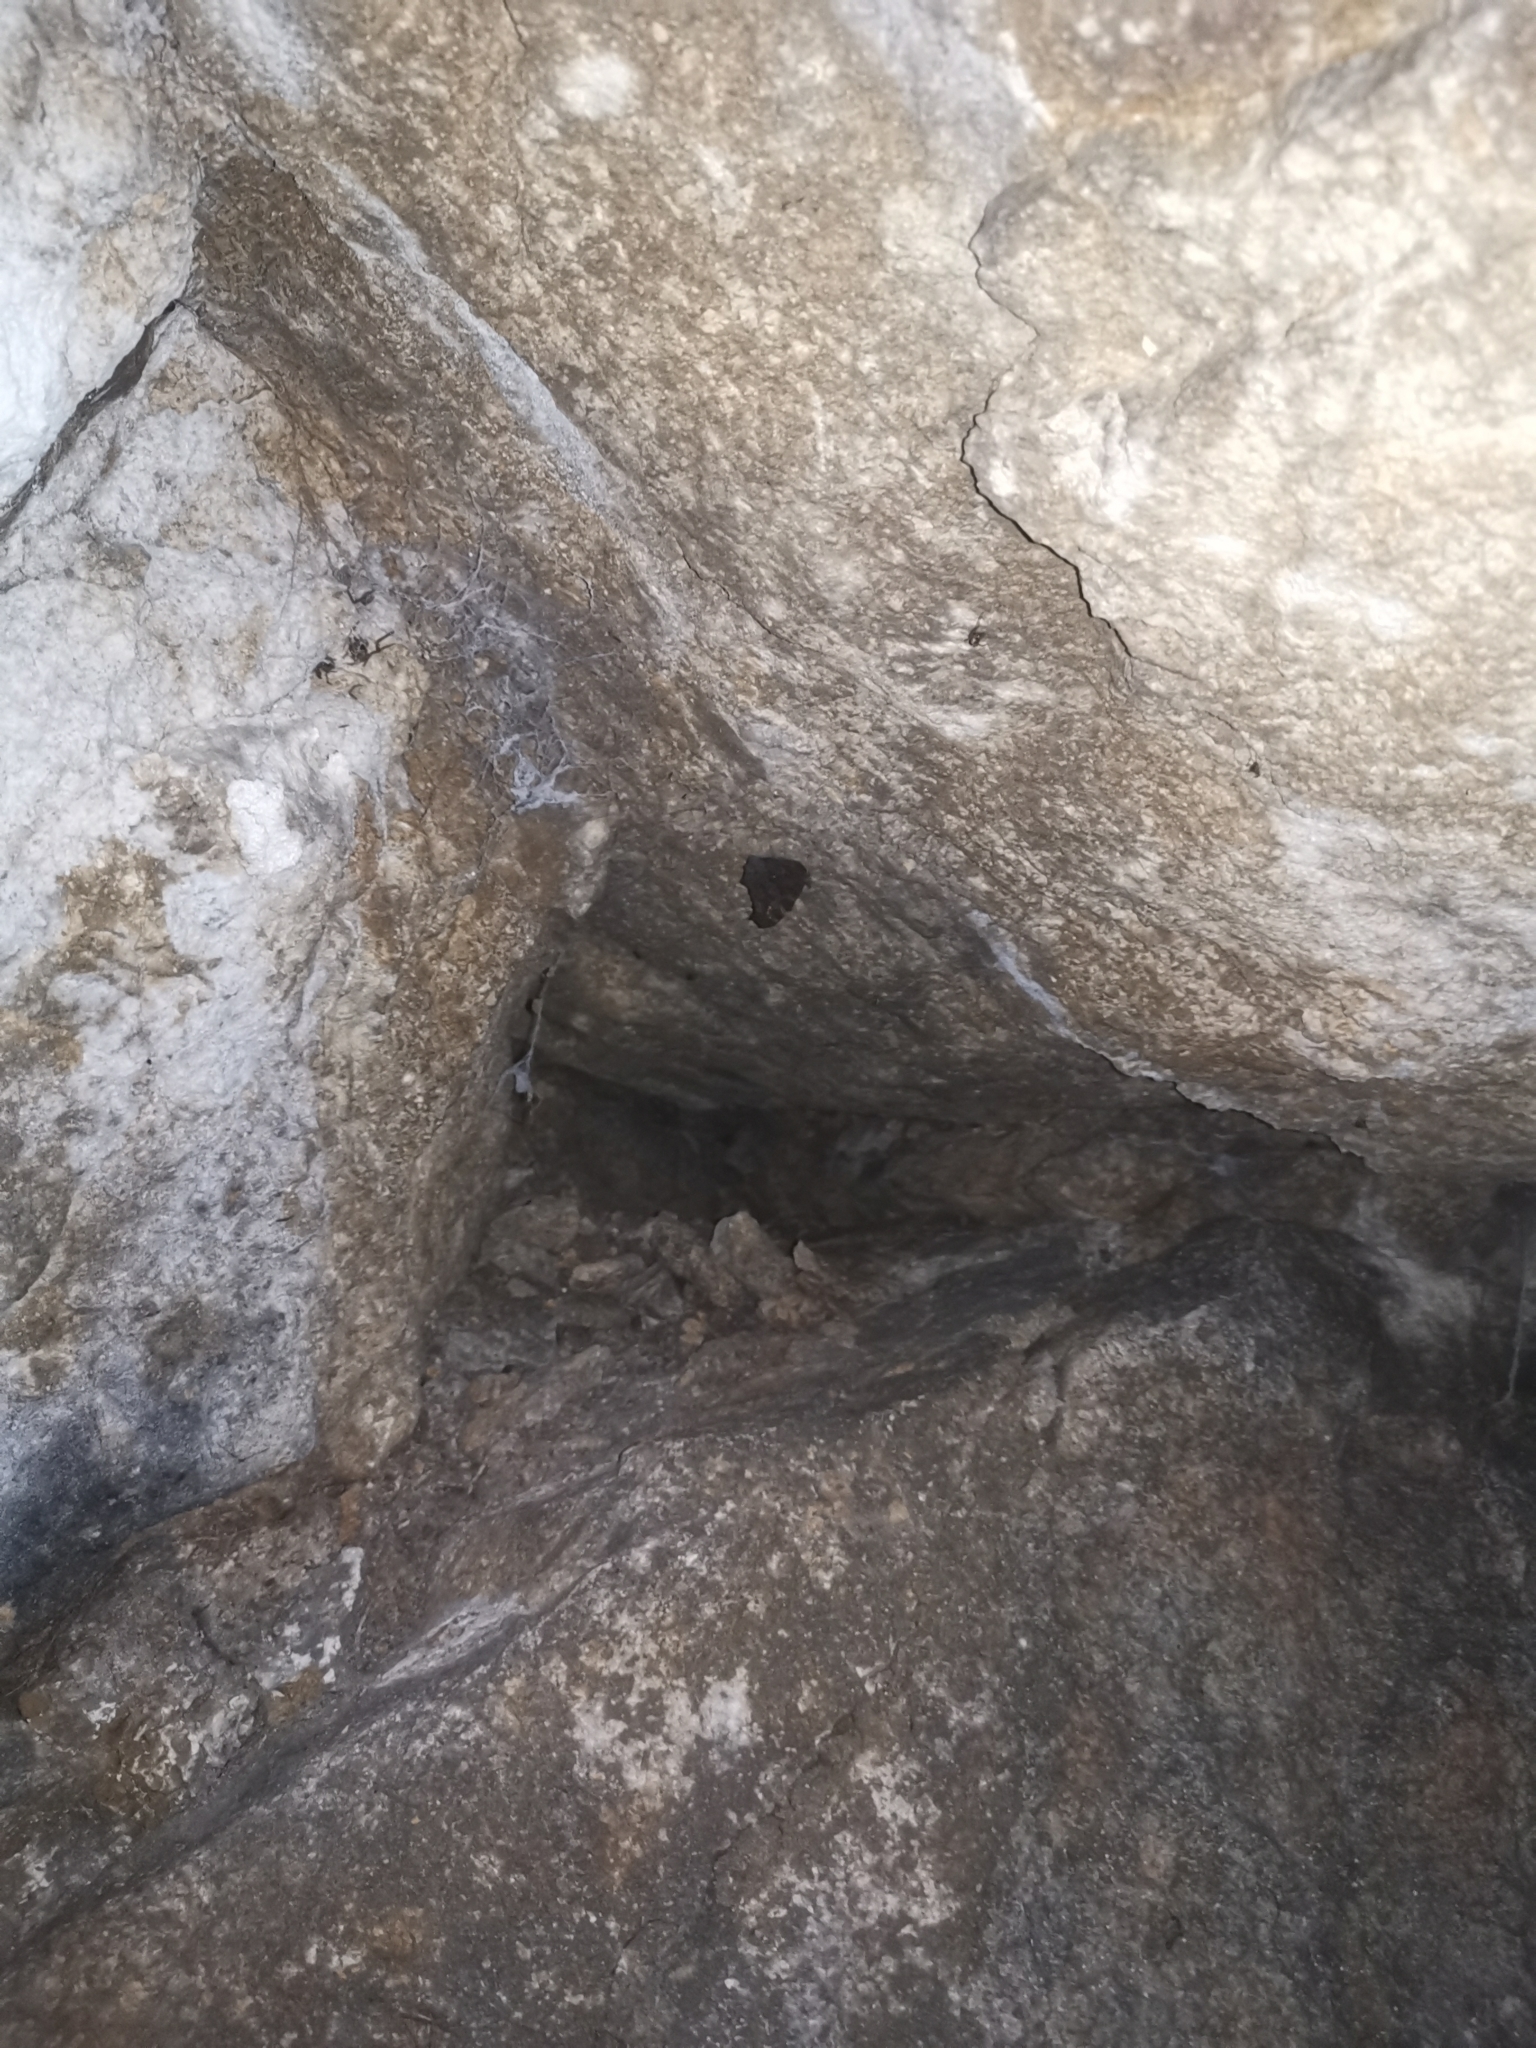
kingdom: Animalia
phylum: Arthropoda
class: Insecta
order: Lepidoptera
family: Nymphalidae
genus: Aglais
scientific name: Aglais io
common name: Peacock
